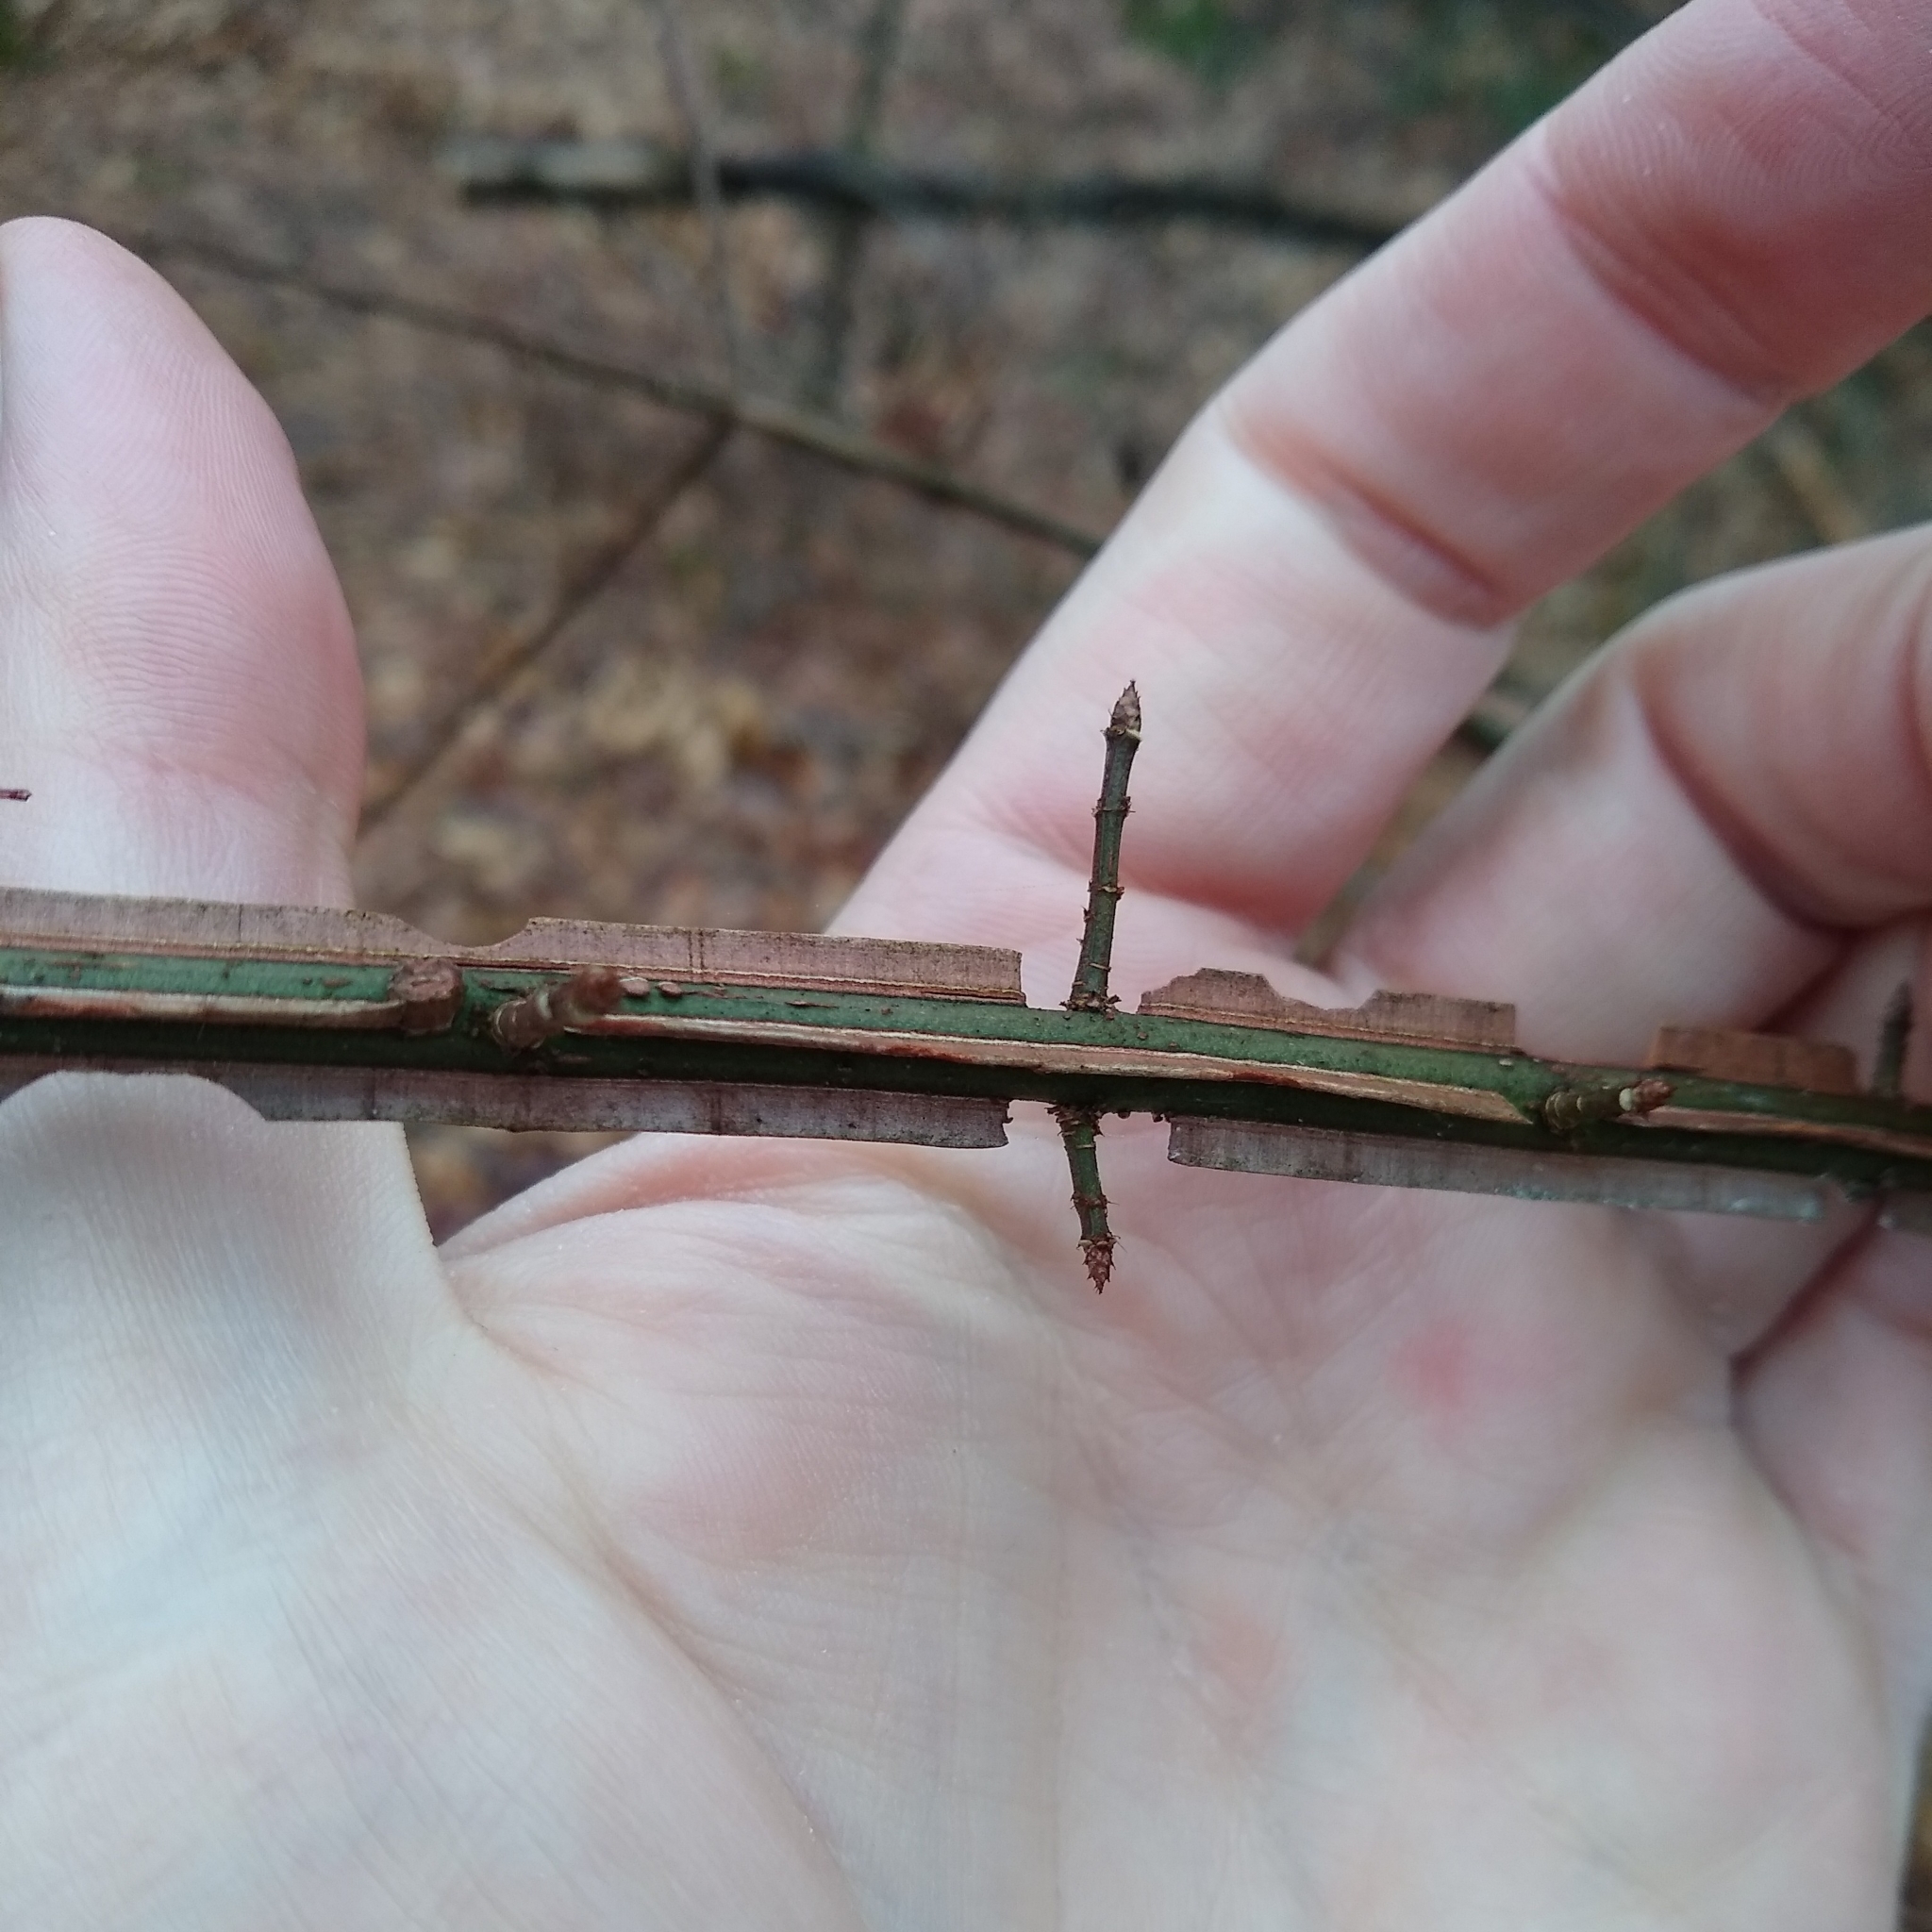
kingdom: Plantae
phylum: Tracheophyta
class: Magnoliopsida
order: Celastrales
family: Celastraceae
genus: Euonymus
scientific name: Euonymus alatus
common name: Winged euonymus
